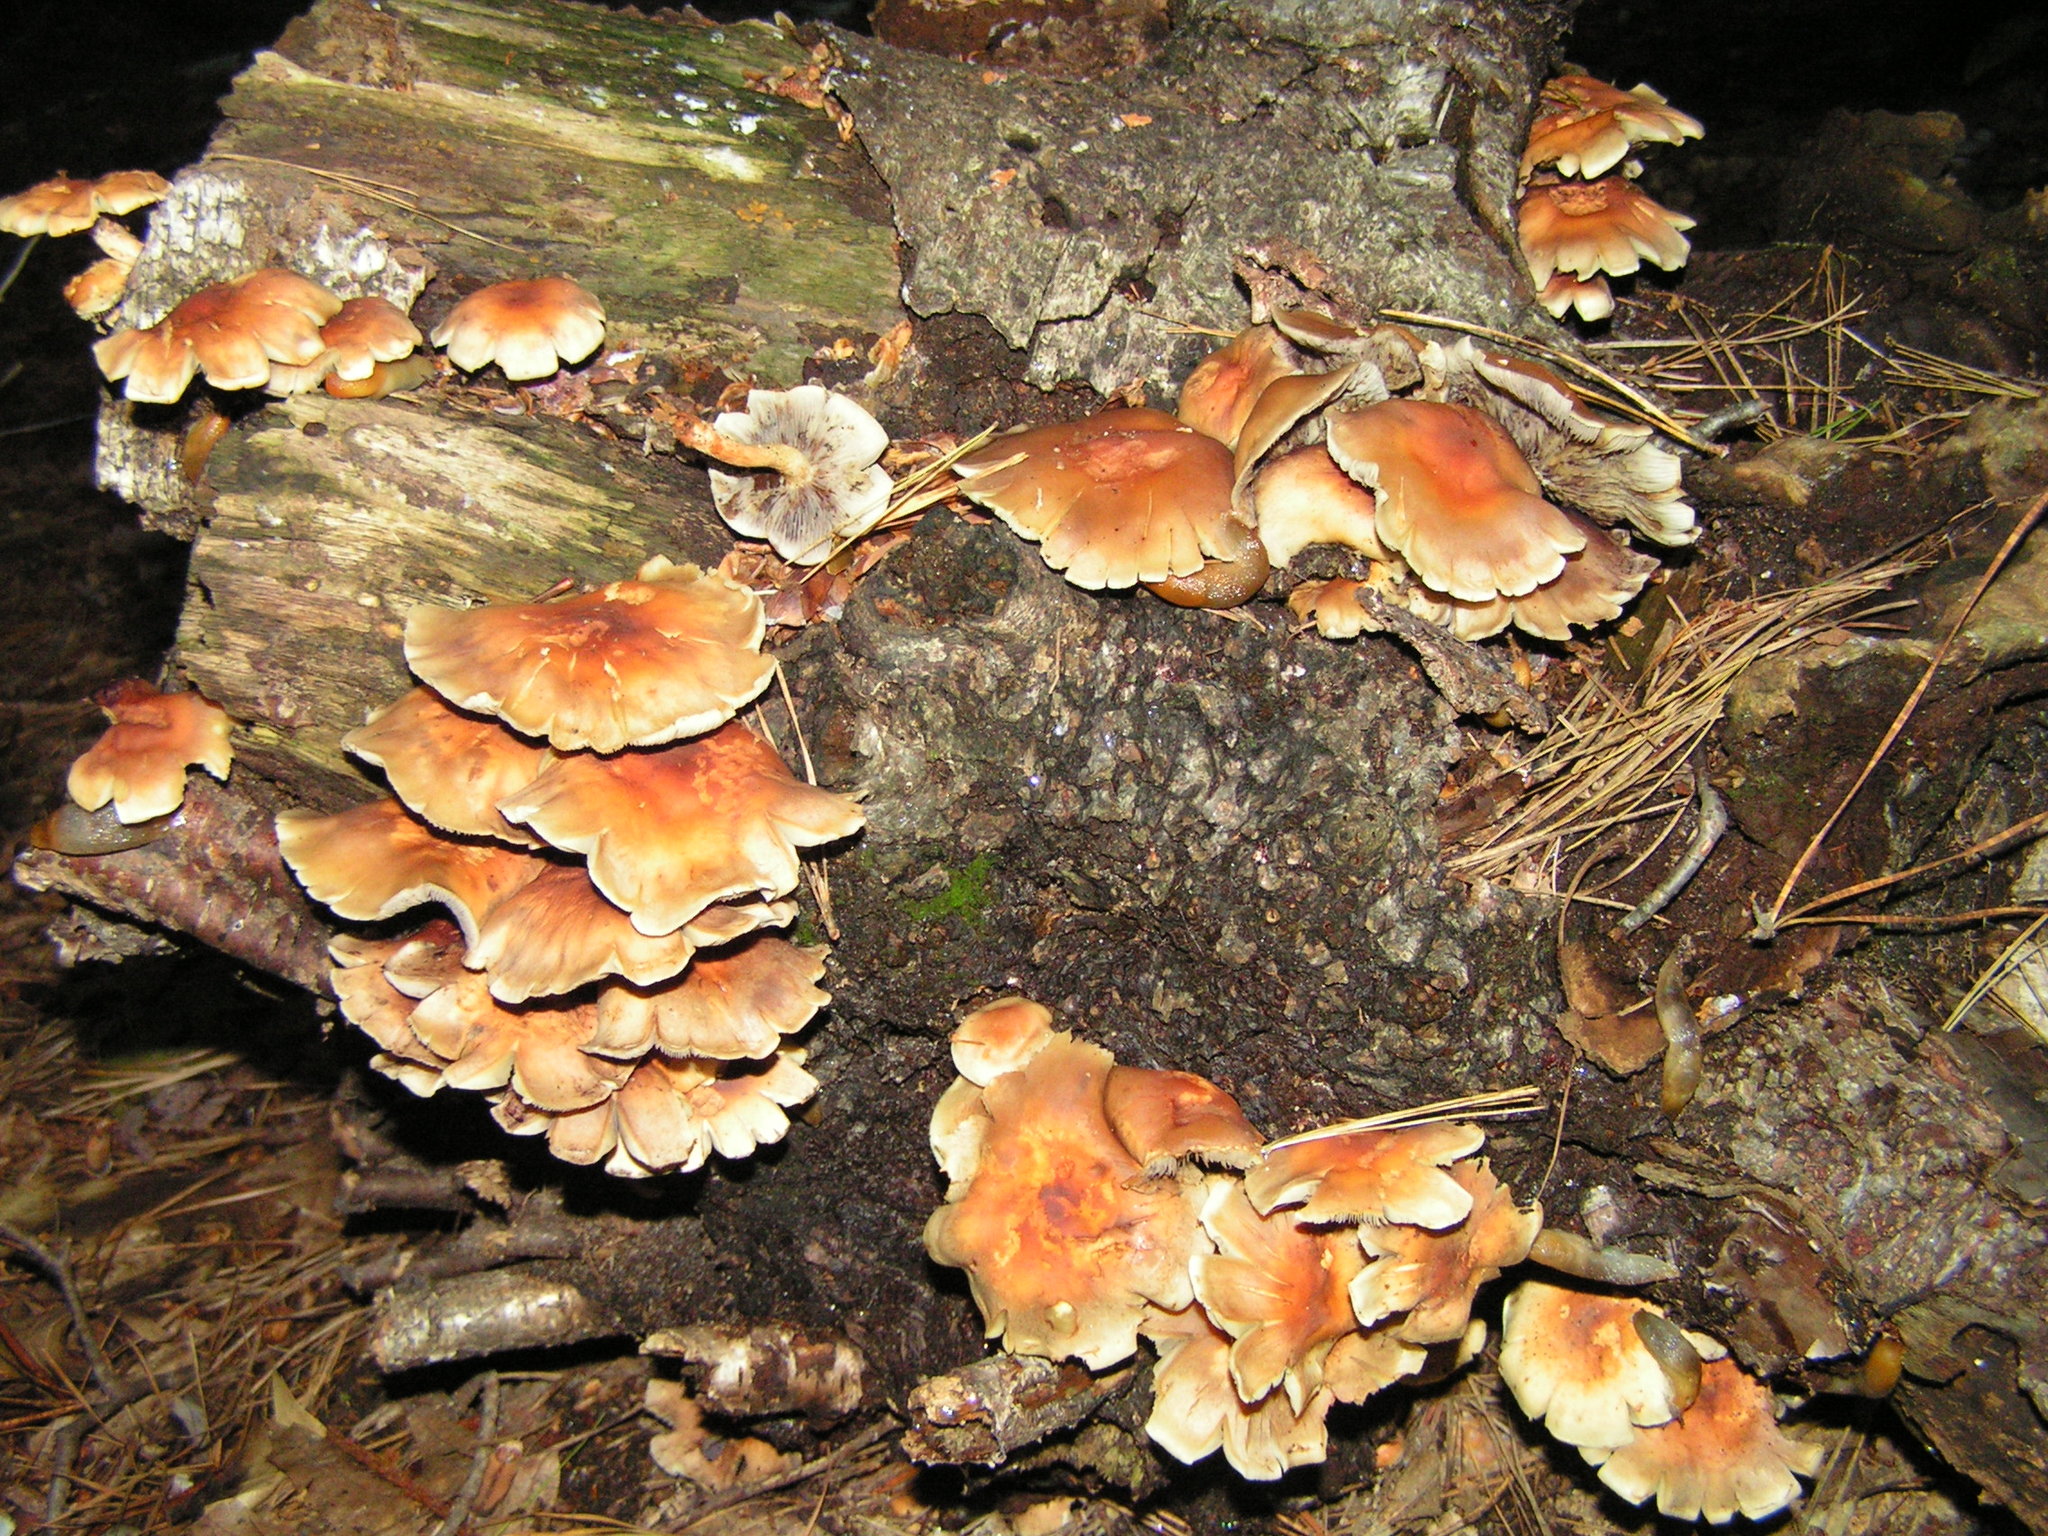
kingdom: Fungi
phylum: Basidiomycota
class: Agaricomycetes
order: Agaricales
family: Strophariaceae
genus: Hypholoma
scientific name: Hypholoma lateritium
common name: Brick caps
